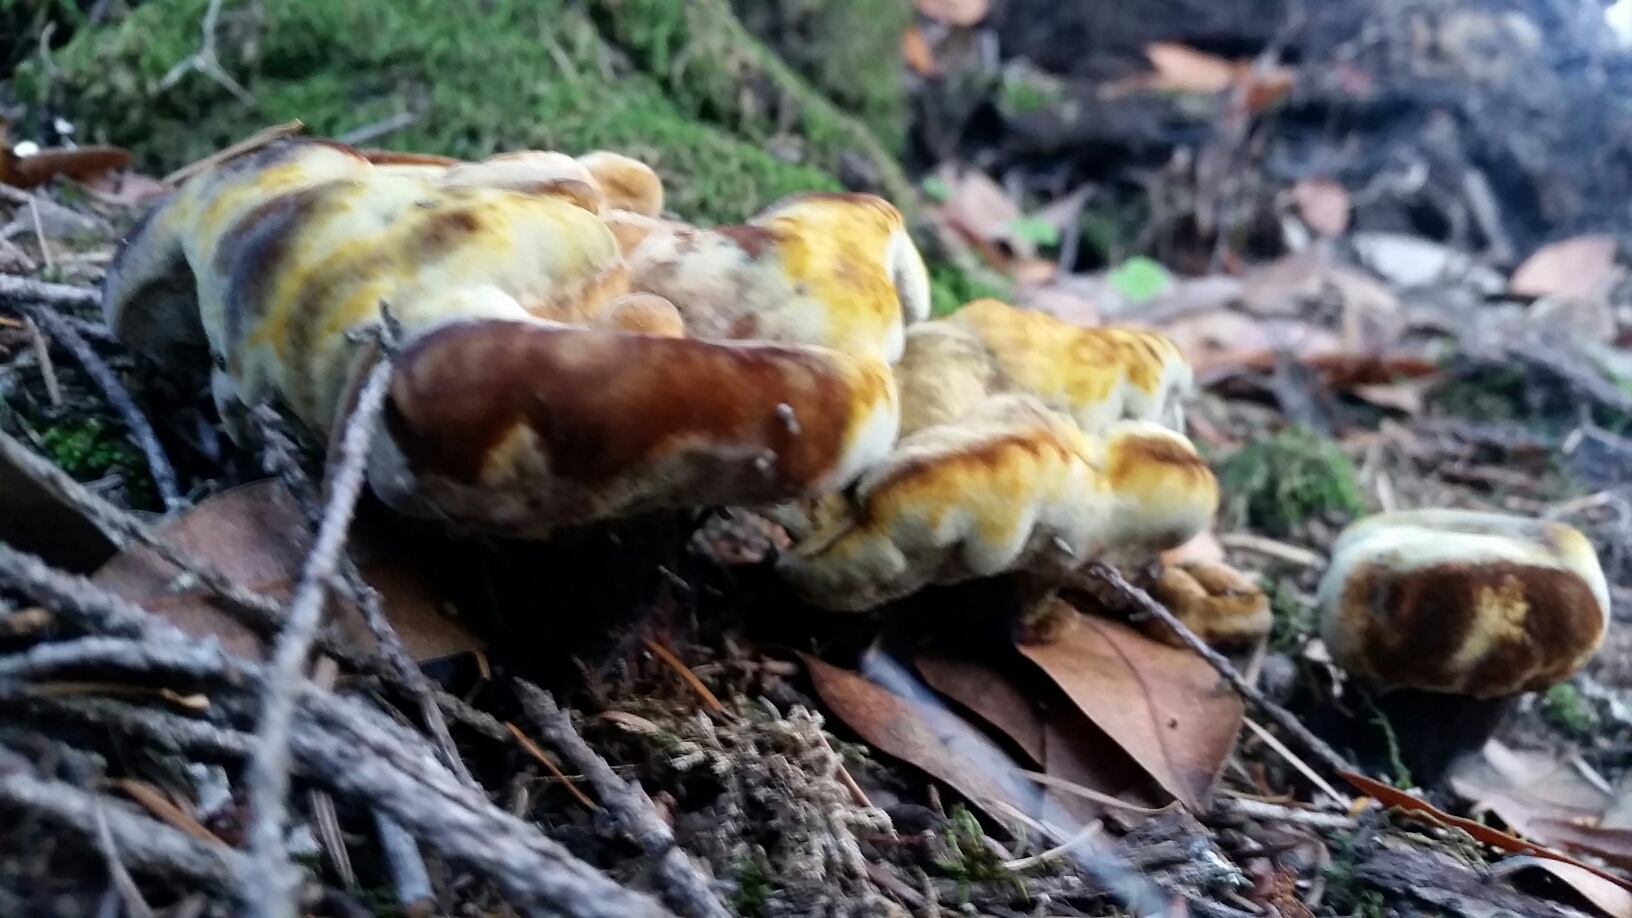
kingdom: Fungi
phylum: Basidiomycota
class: Agaricomycetes
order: Polyporales
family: Laetiporaceae
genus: Phaeolus
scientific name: Phaeolus schweinitzii
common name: Dyer's mazegill
